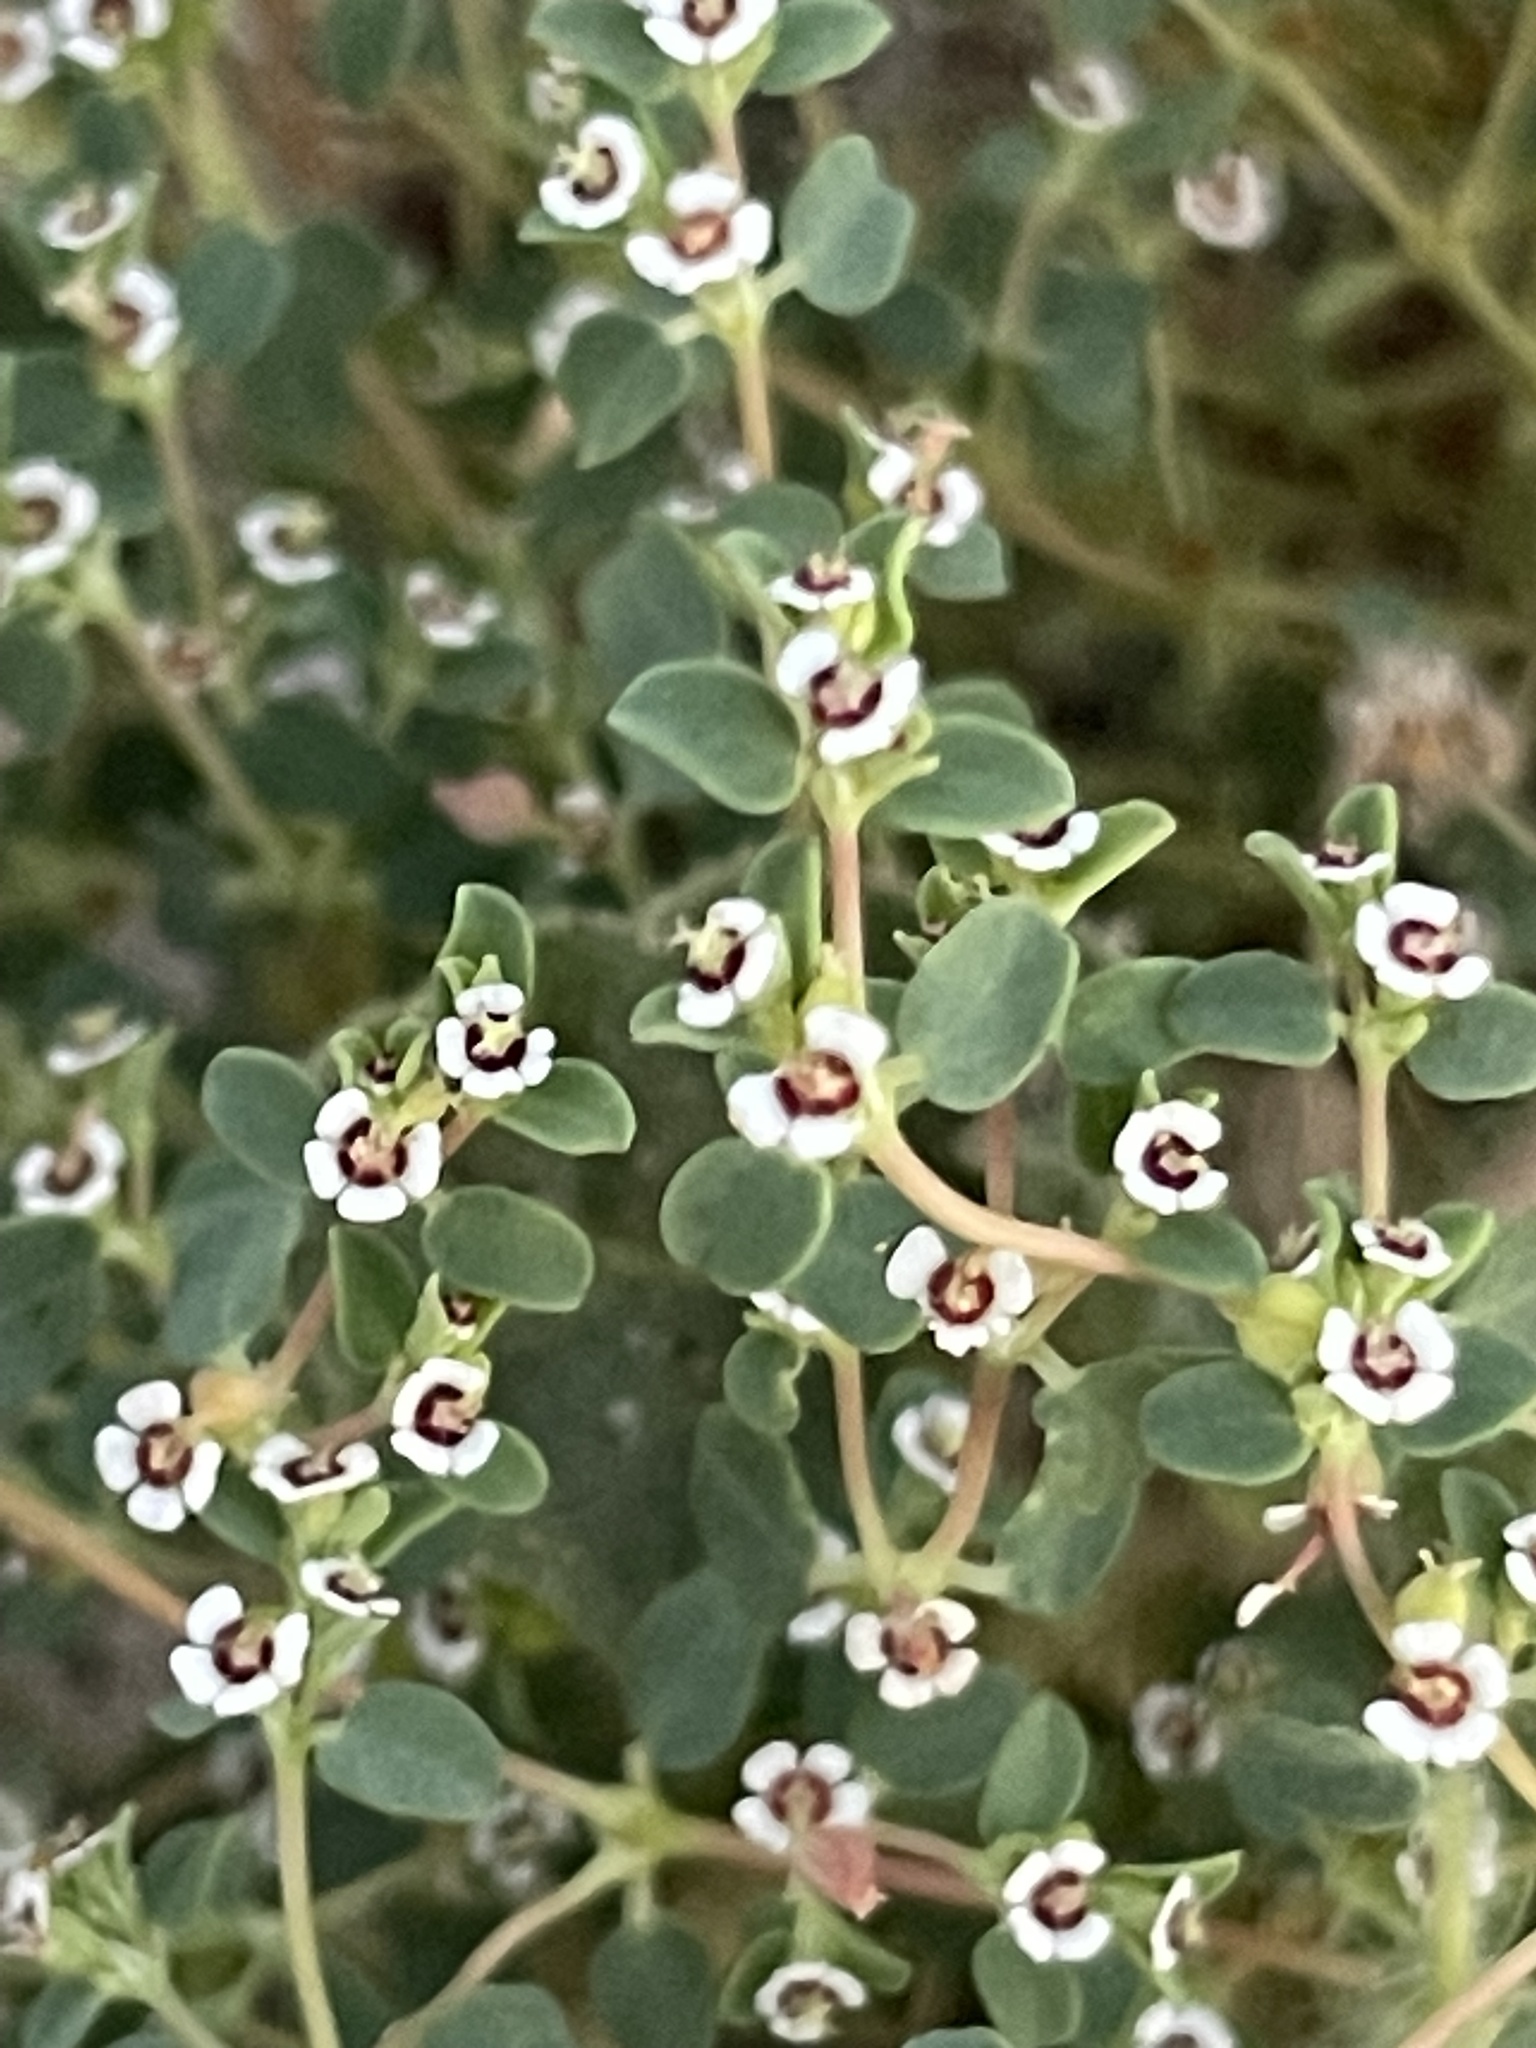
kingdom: Plantae
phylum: Tracheophyta
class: Magnoliopsida
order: Malpighiales
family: Euphorbiaceae
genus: Euphorbia
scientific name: Euphorbia polycarpa
